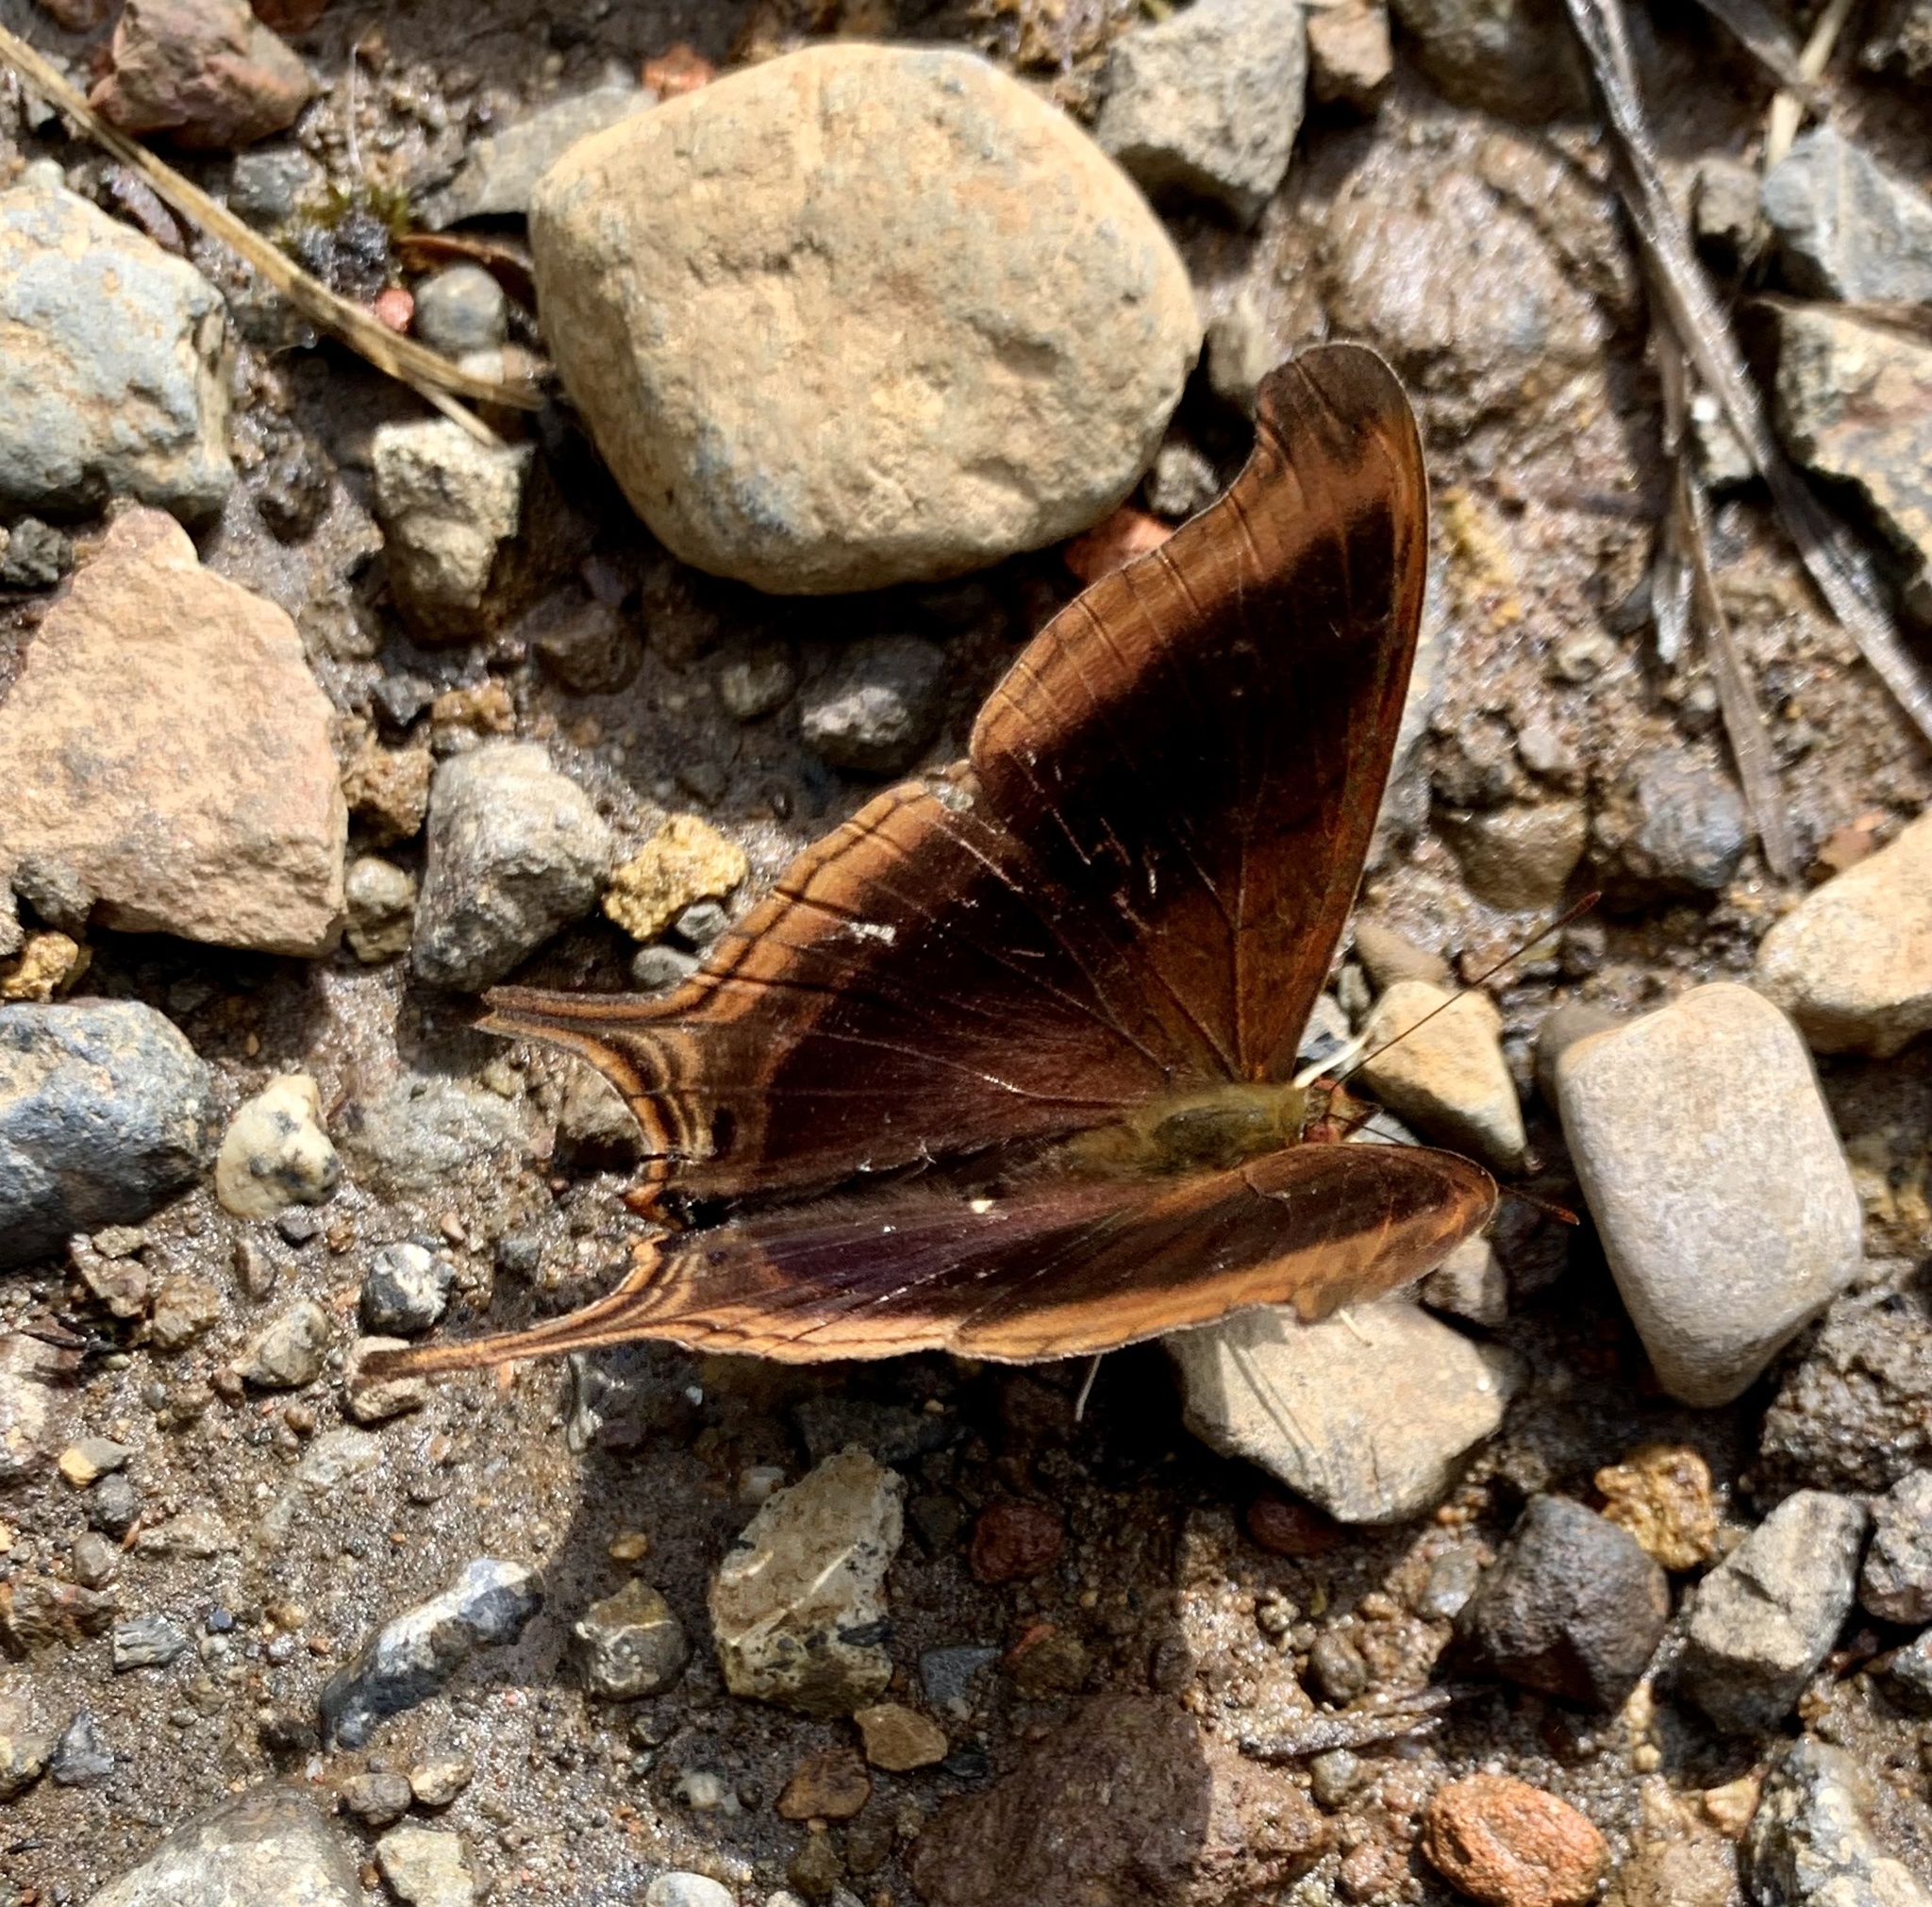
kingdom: Animalia
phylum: Arthropoda
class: Insecta
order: Lepidoptera
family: Nymphalidae
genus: Marpesia
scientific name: Marpesia zerynthia
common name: Waiter daggerwing
